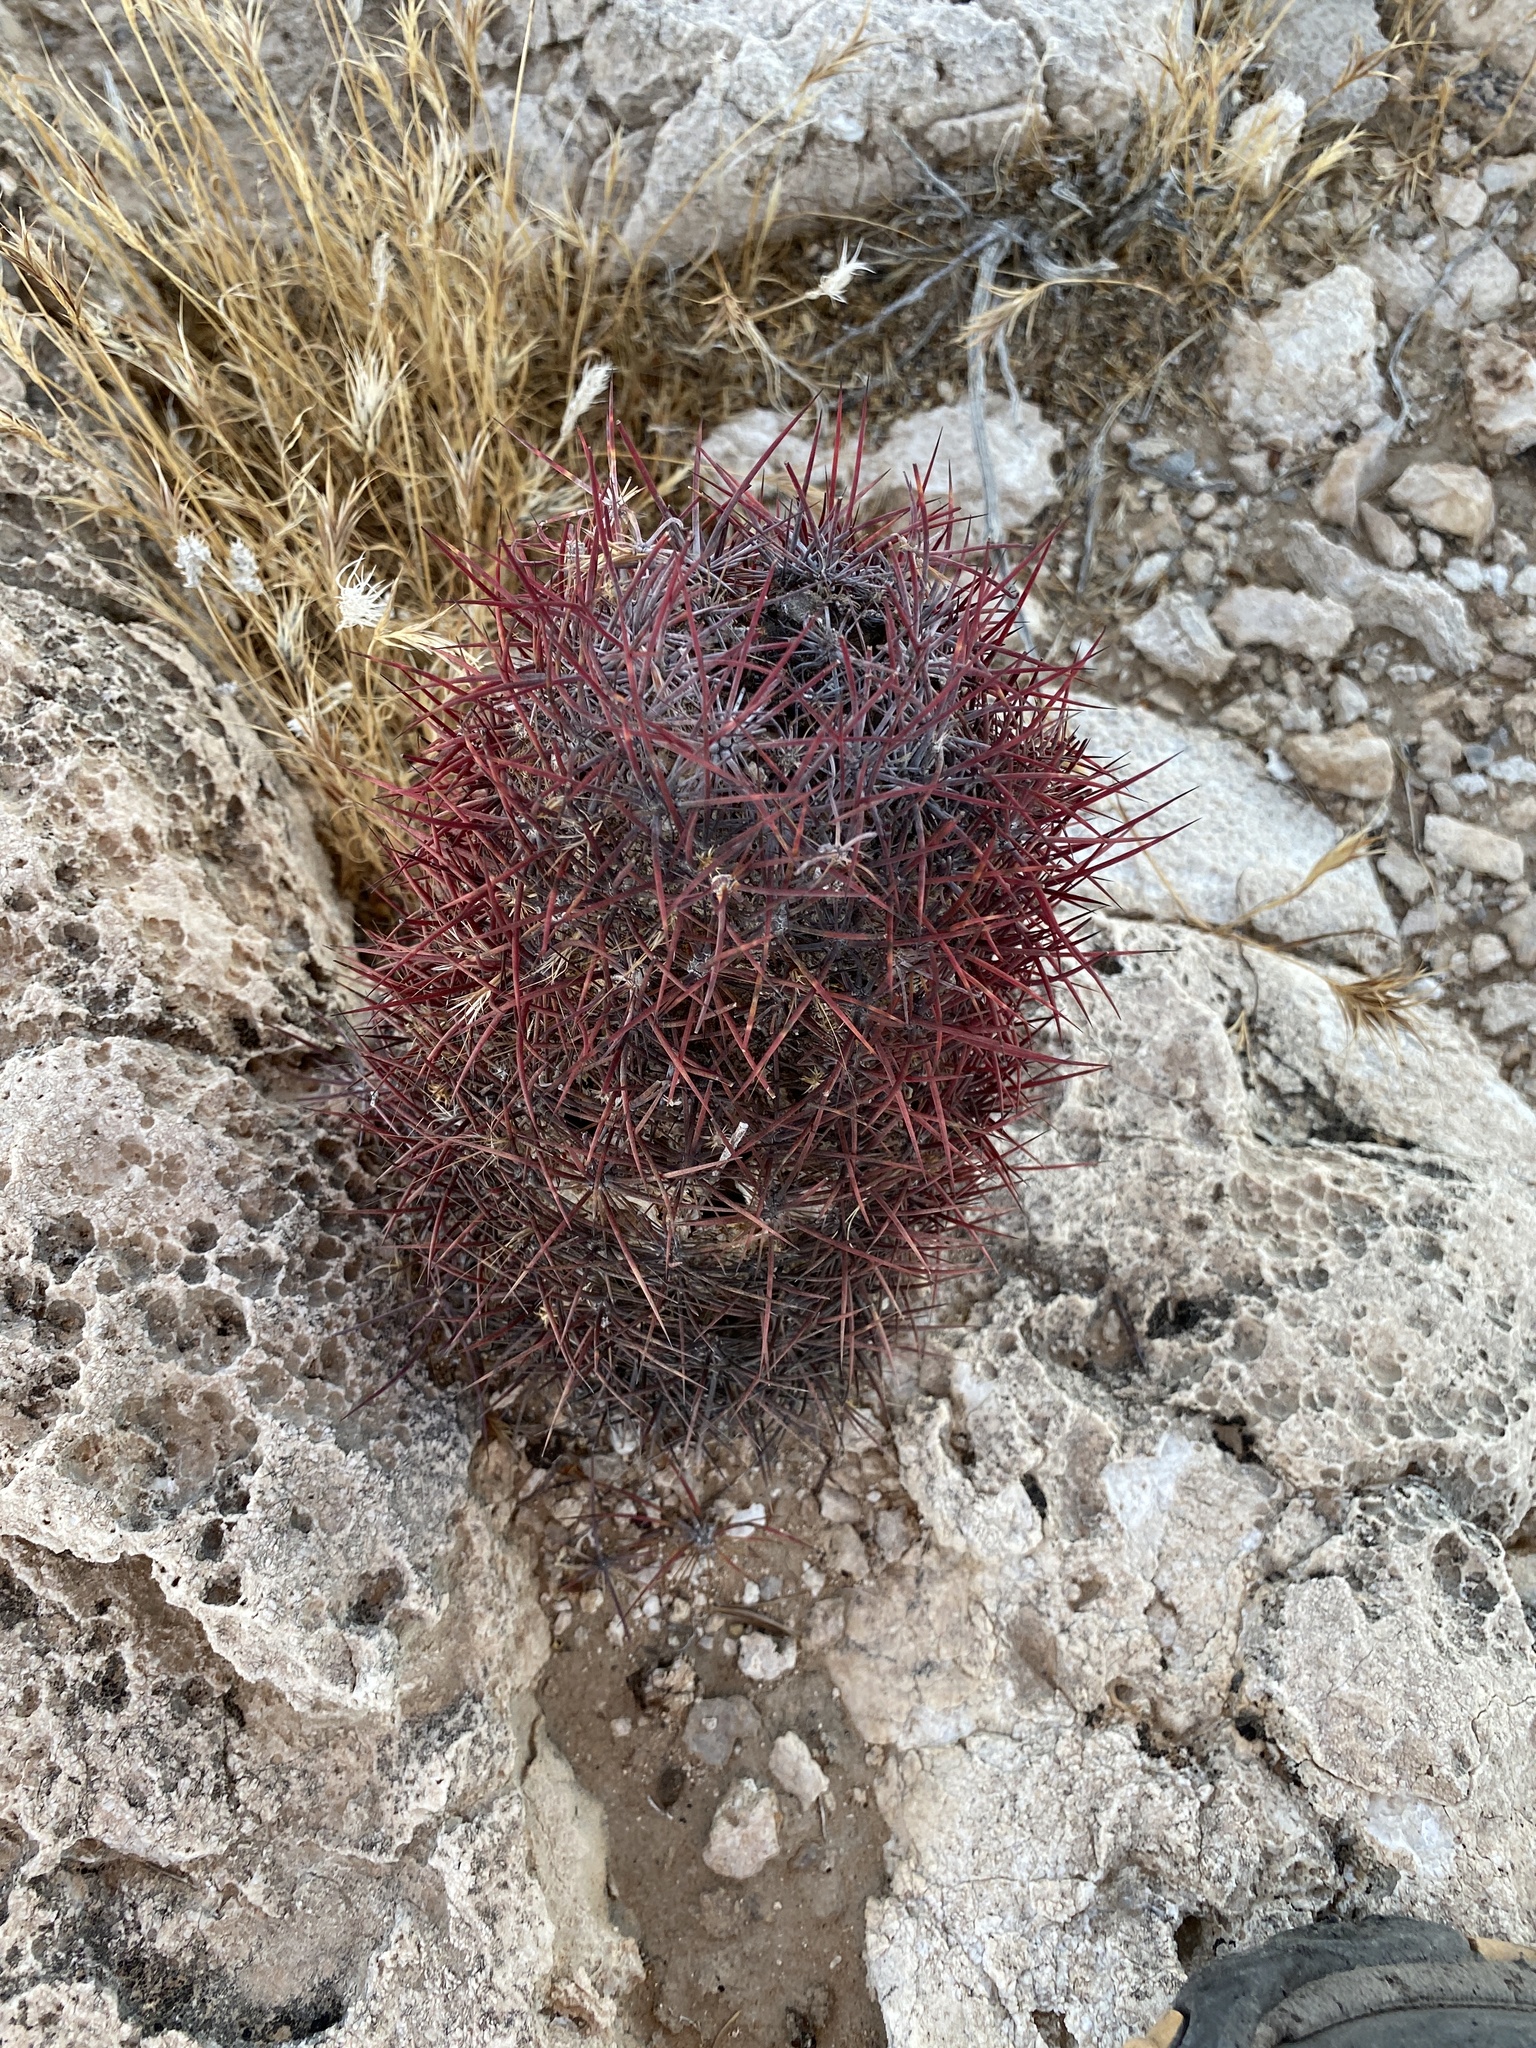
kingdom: Plantae
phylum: Tracheophyta
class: Magnoliopsida
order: Caryophyllales
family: Cactaceae
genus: Sclerocactus
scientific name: Sclerocactus johnsonii
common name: Eight-spine fishhook cactus
